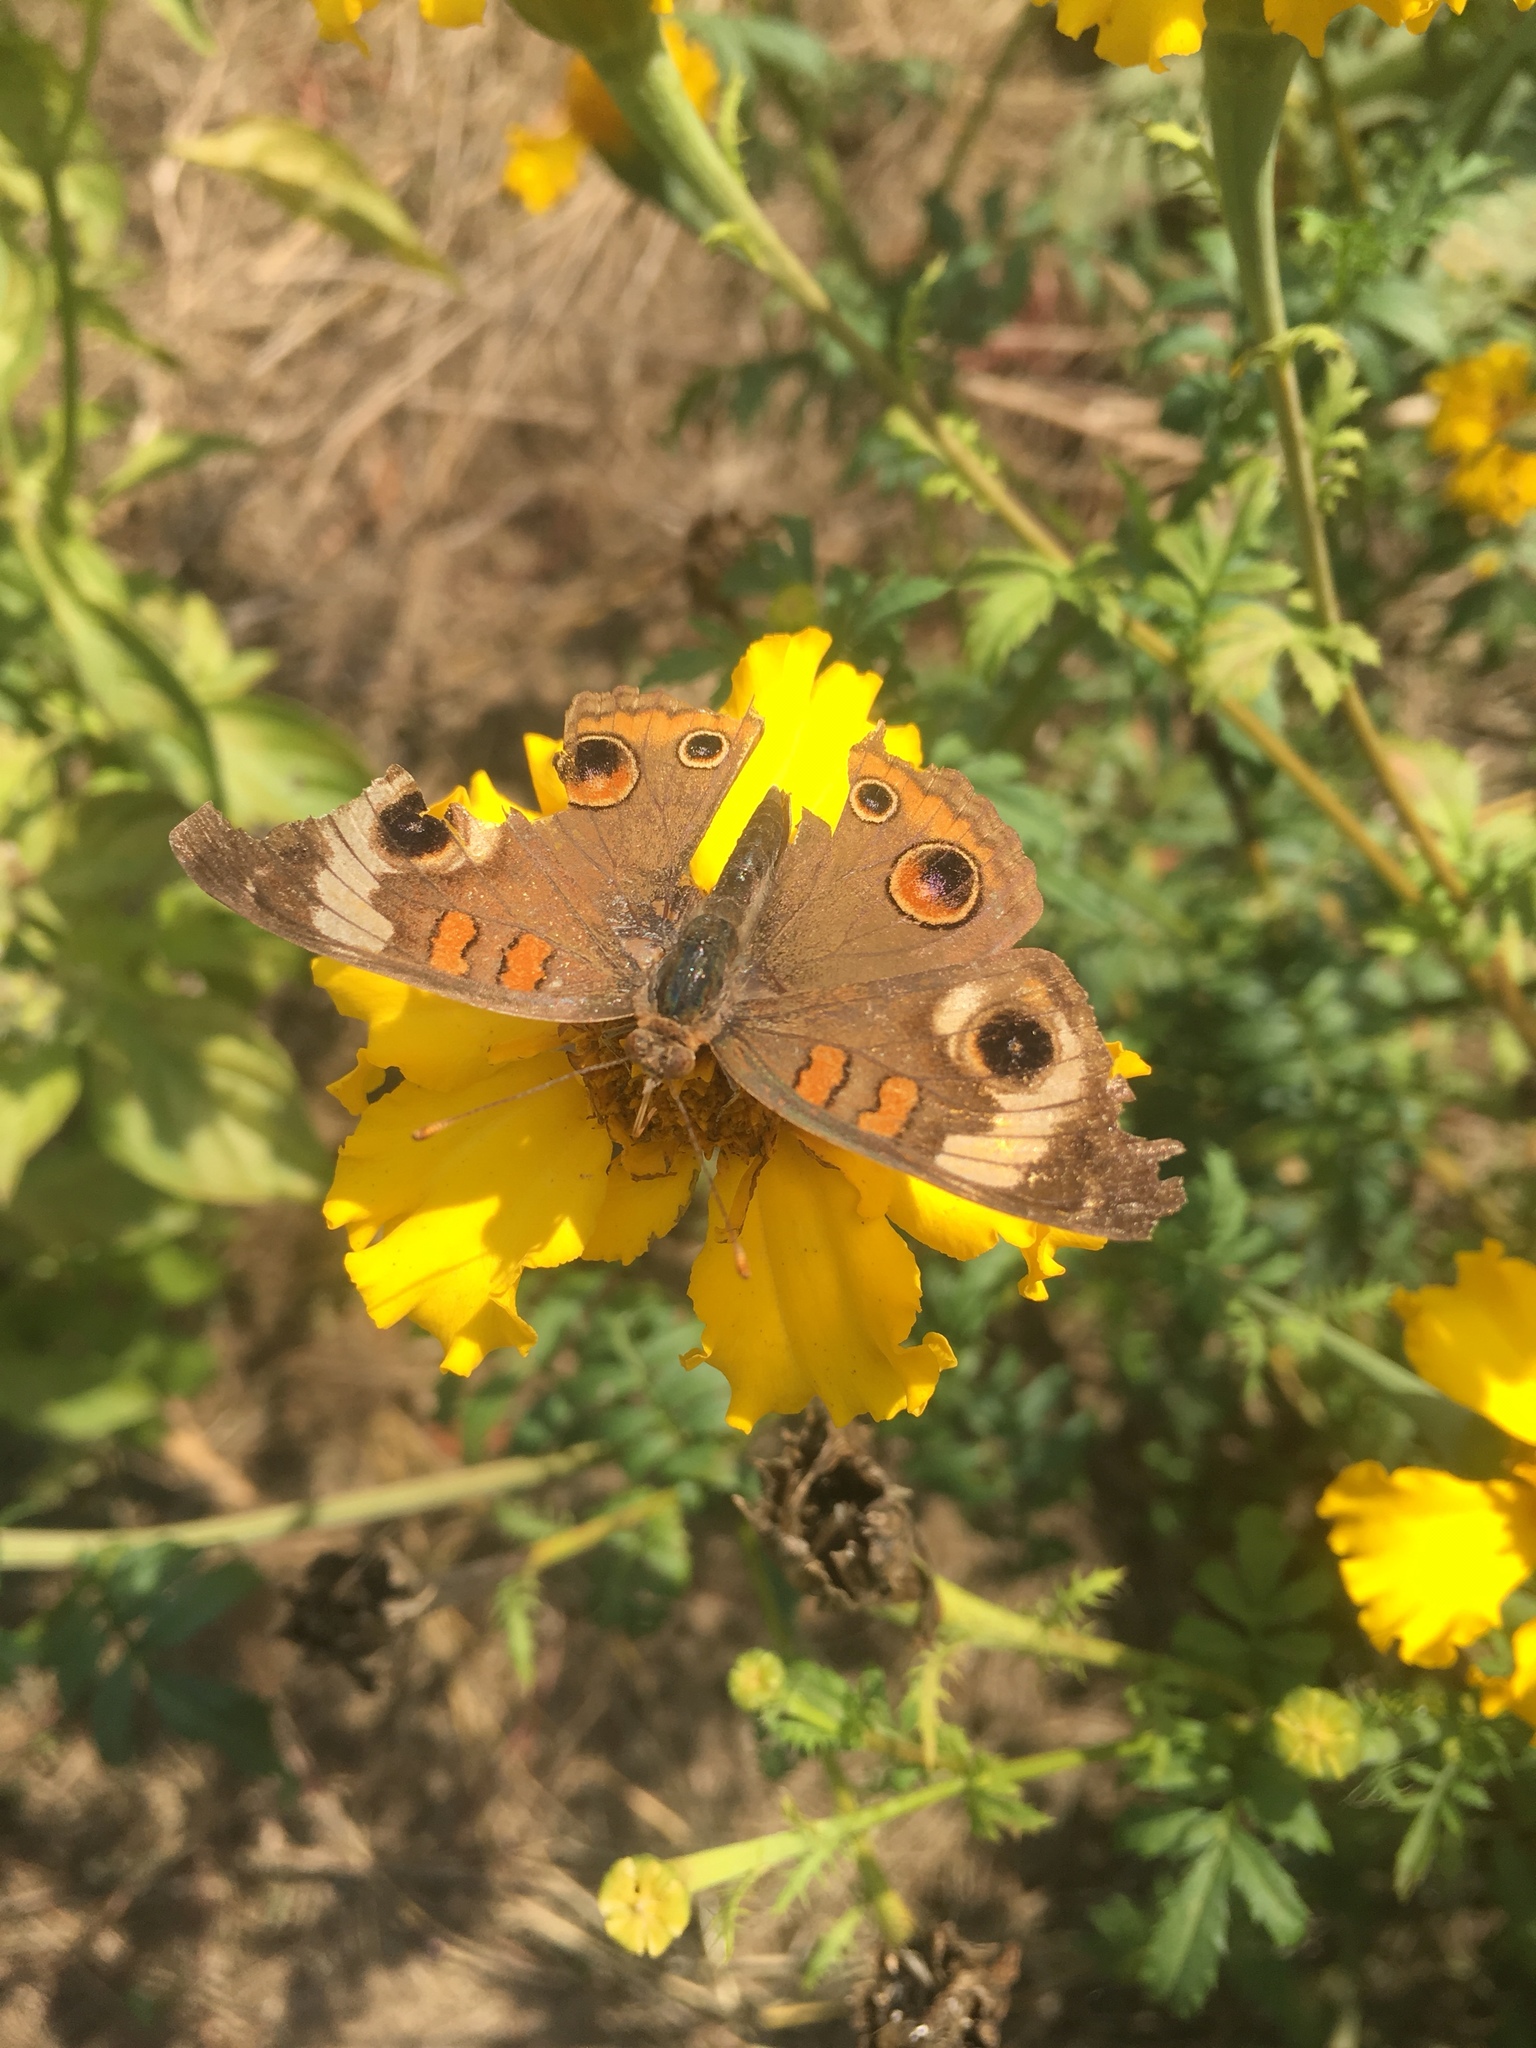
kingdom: Animalia
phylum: Arthropoda
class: Insecta
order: Lepidoptera
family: Nymphalidae
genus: Junonia
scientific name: Junonia coenia
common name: Common buckeye
